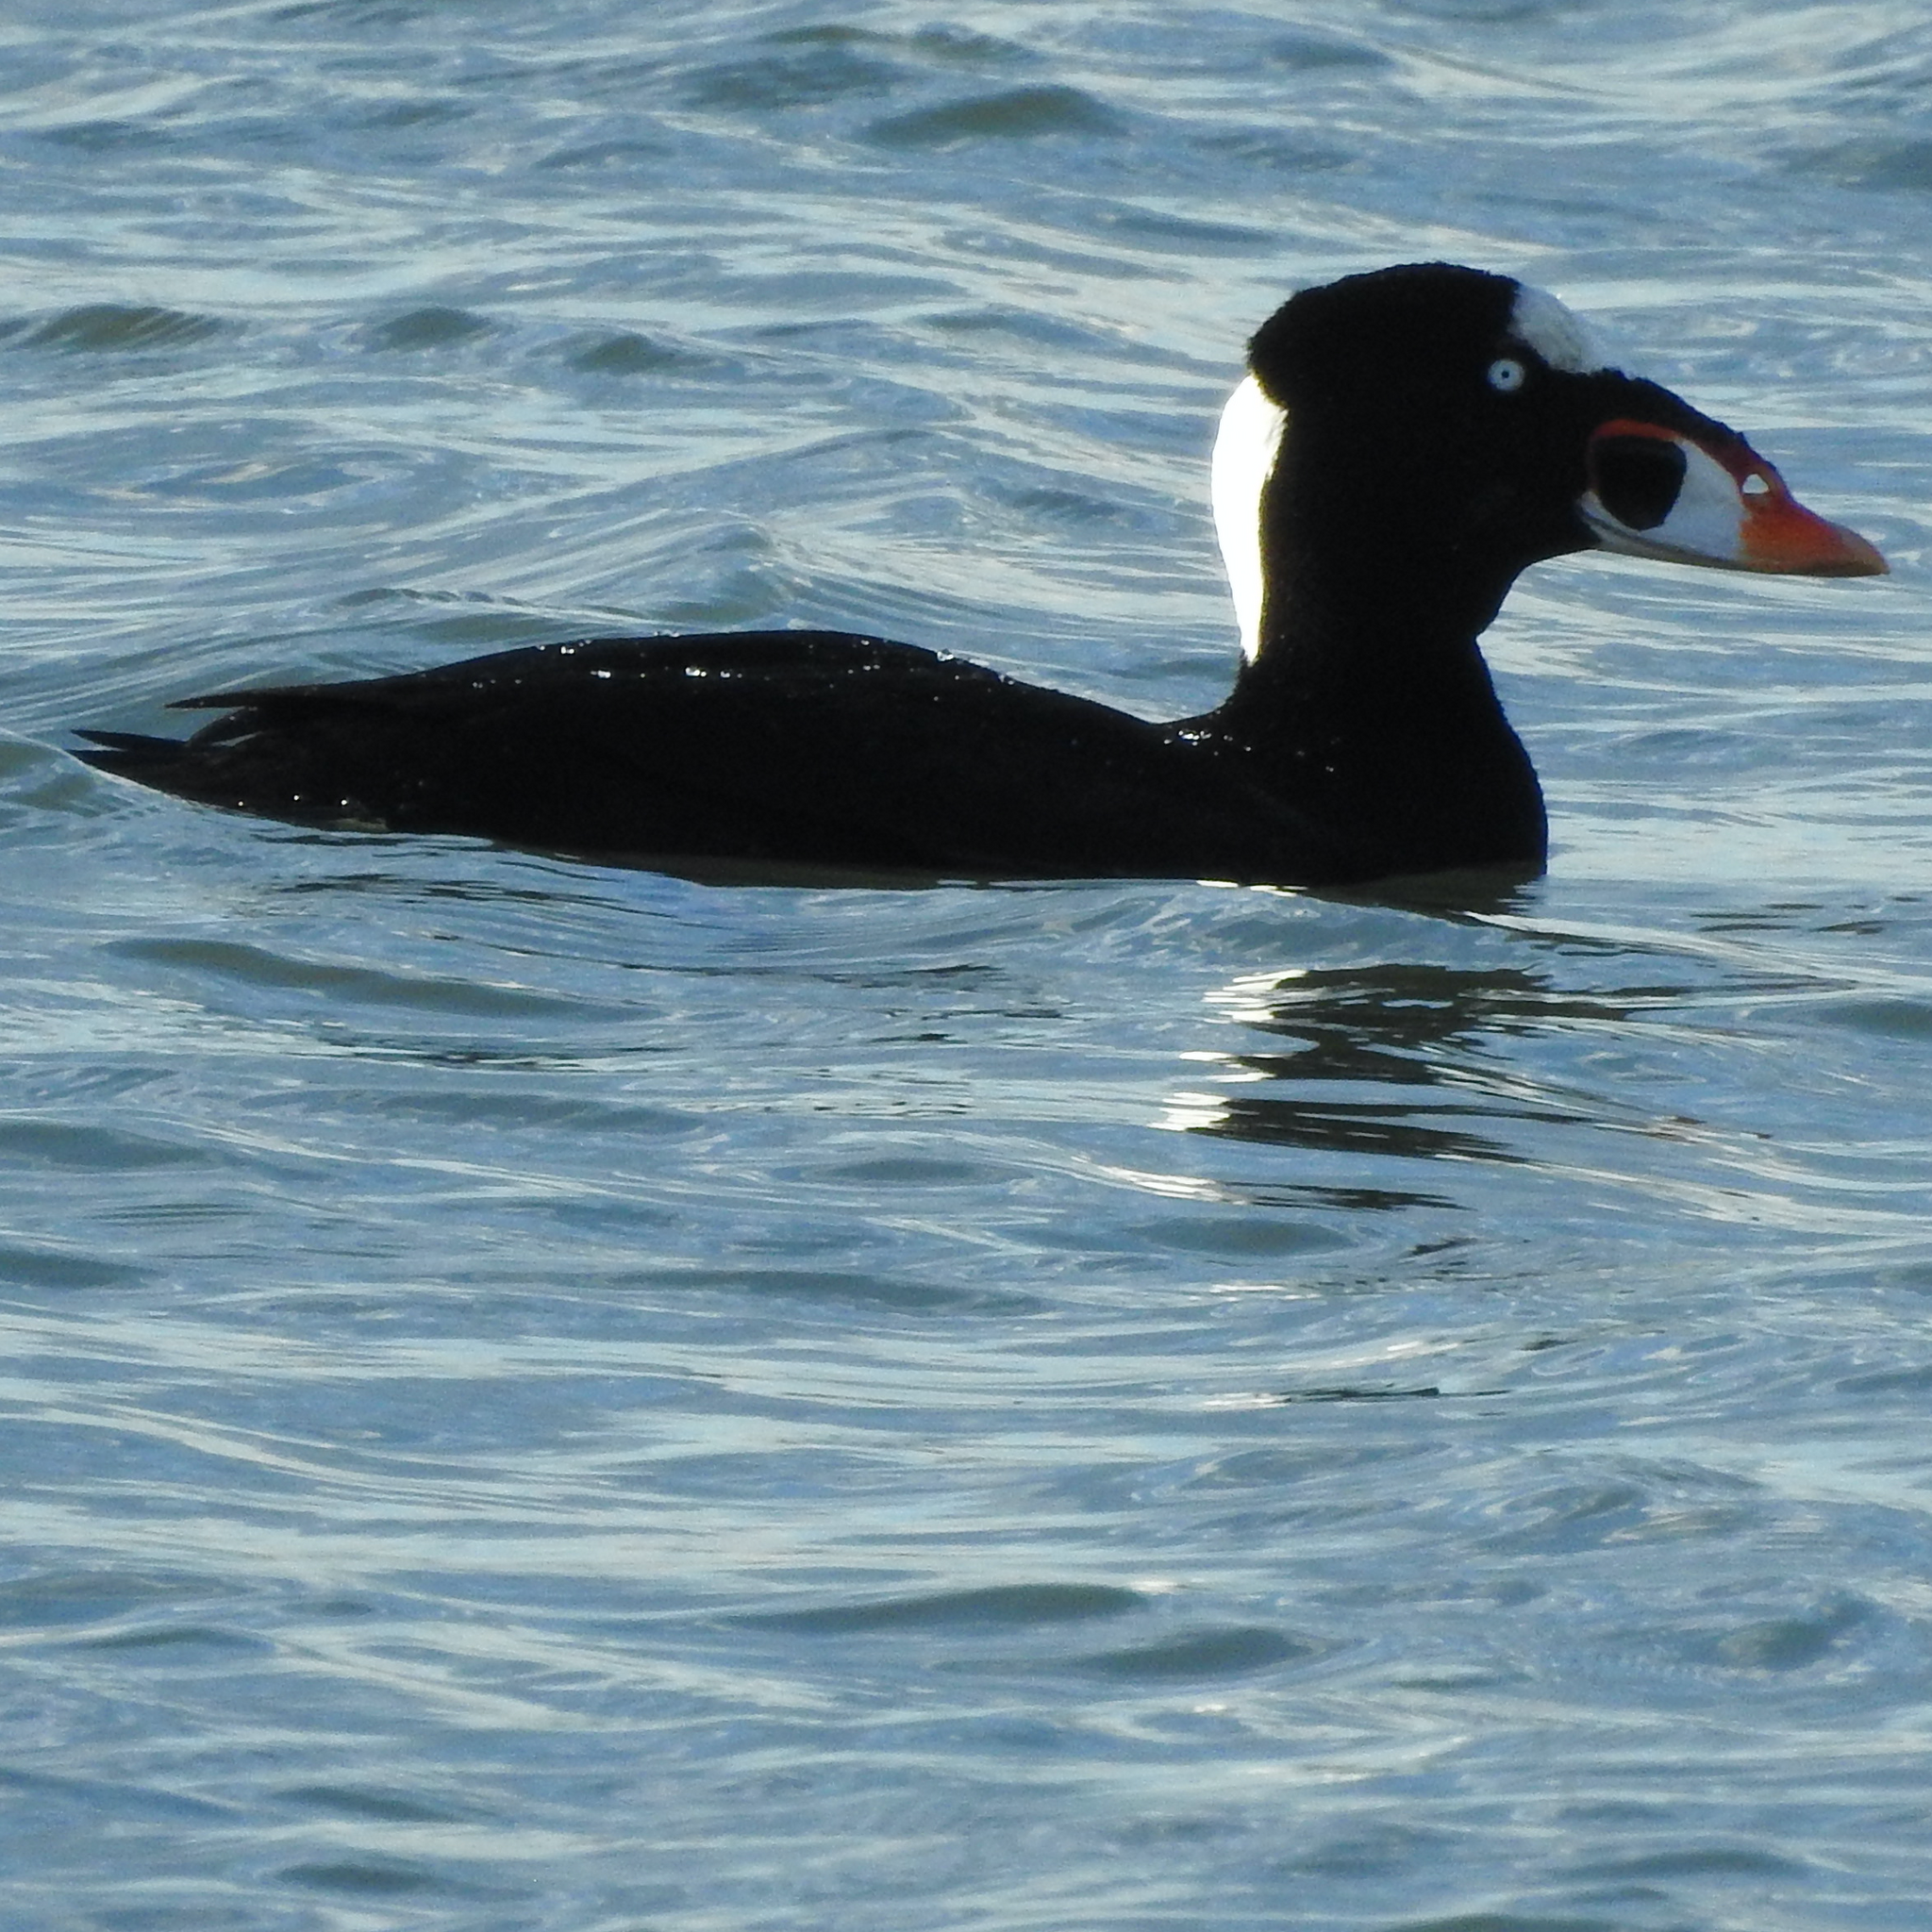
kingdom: Animalia
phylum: Chordata
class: Aves
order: Anseriformes
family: Anatidae
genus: Melanitta
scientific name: Melanitta perspicillata
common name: Surf scoter
